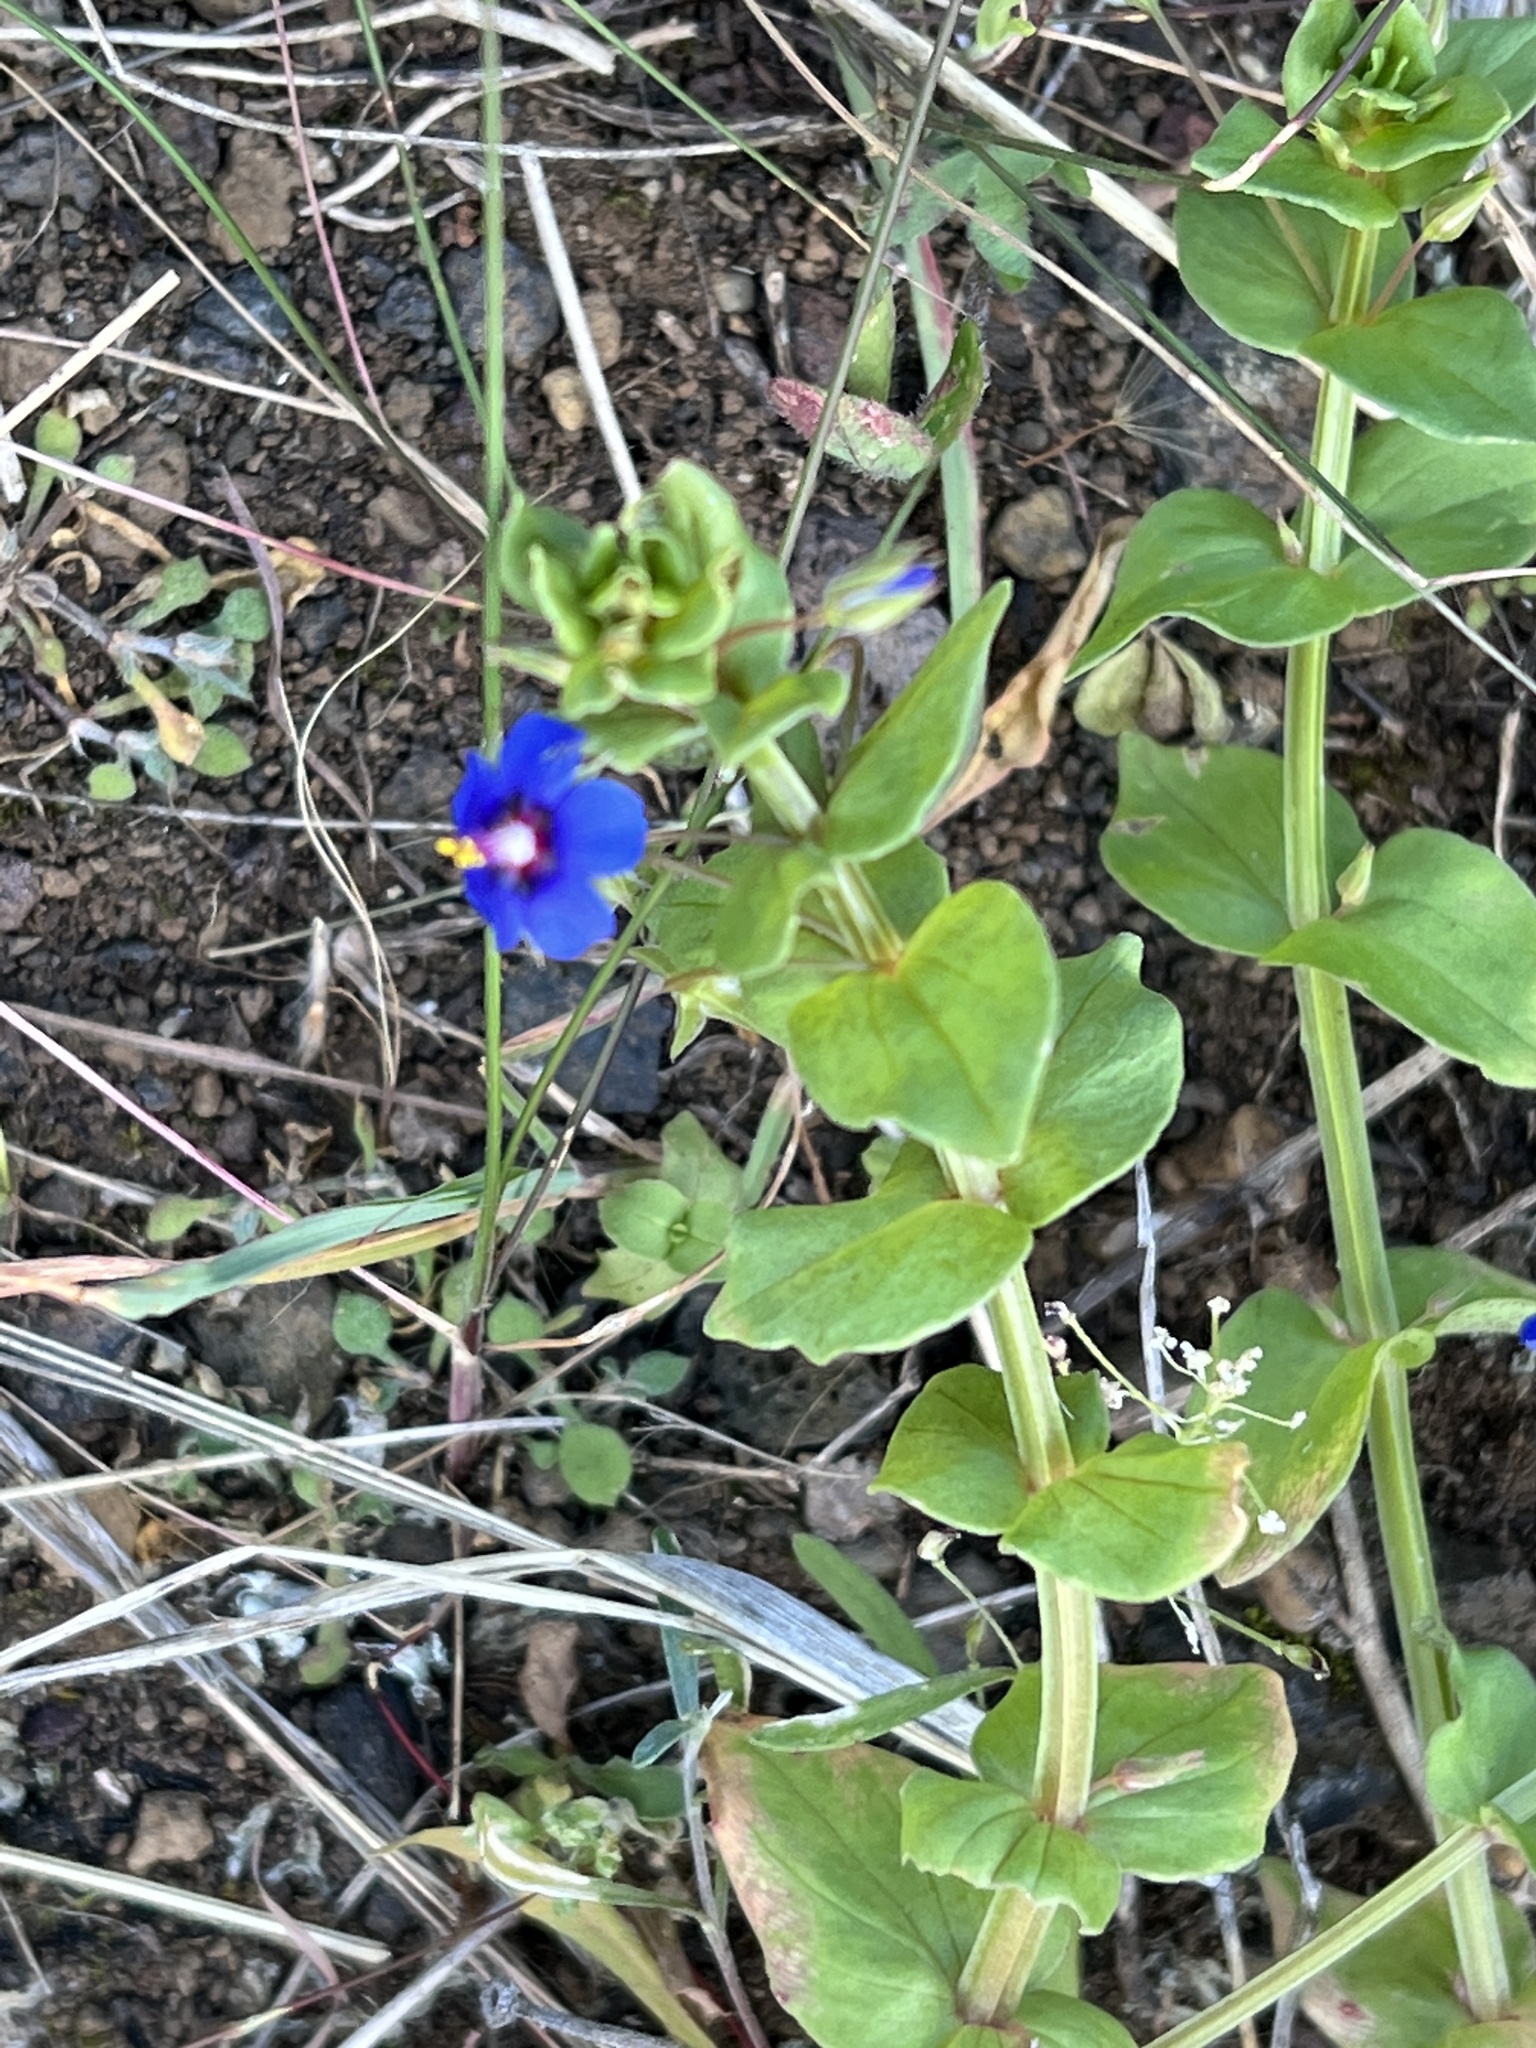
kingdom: Plantae
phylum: Tracheophyta
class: Magnoliopsida
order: Ericales
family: Primulaceae
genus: Lysimachia
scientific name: Lysimachia loeflingii
